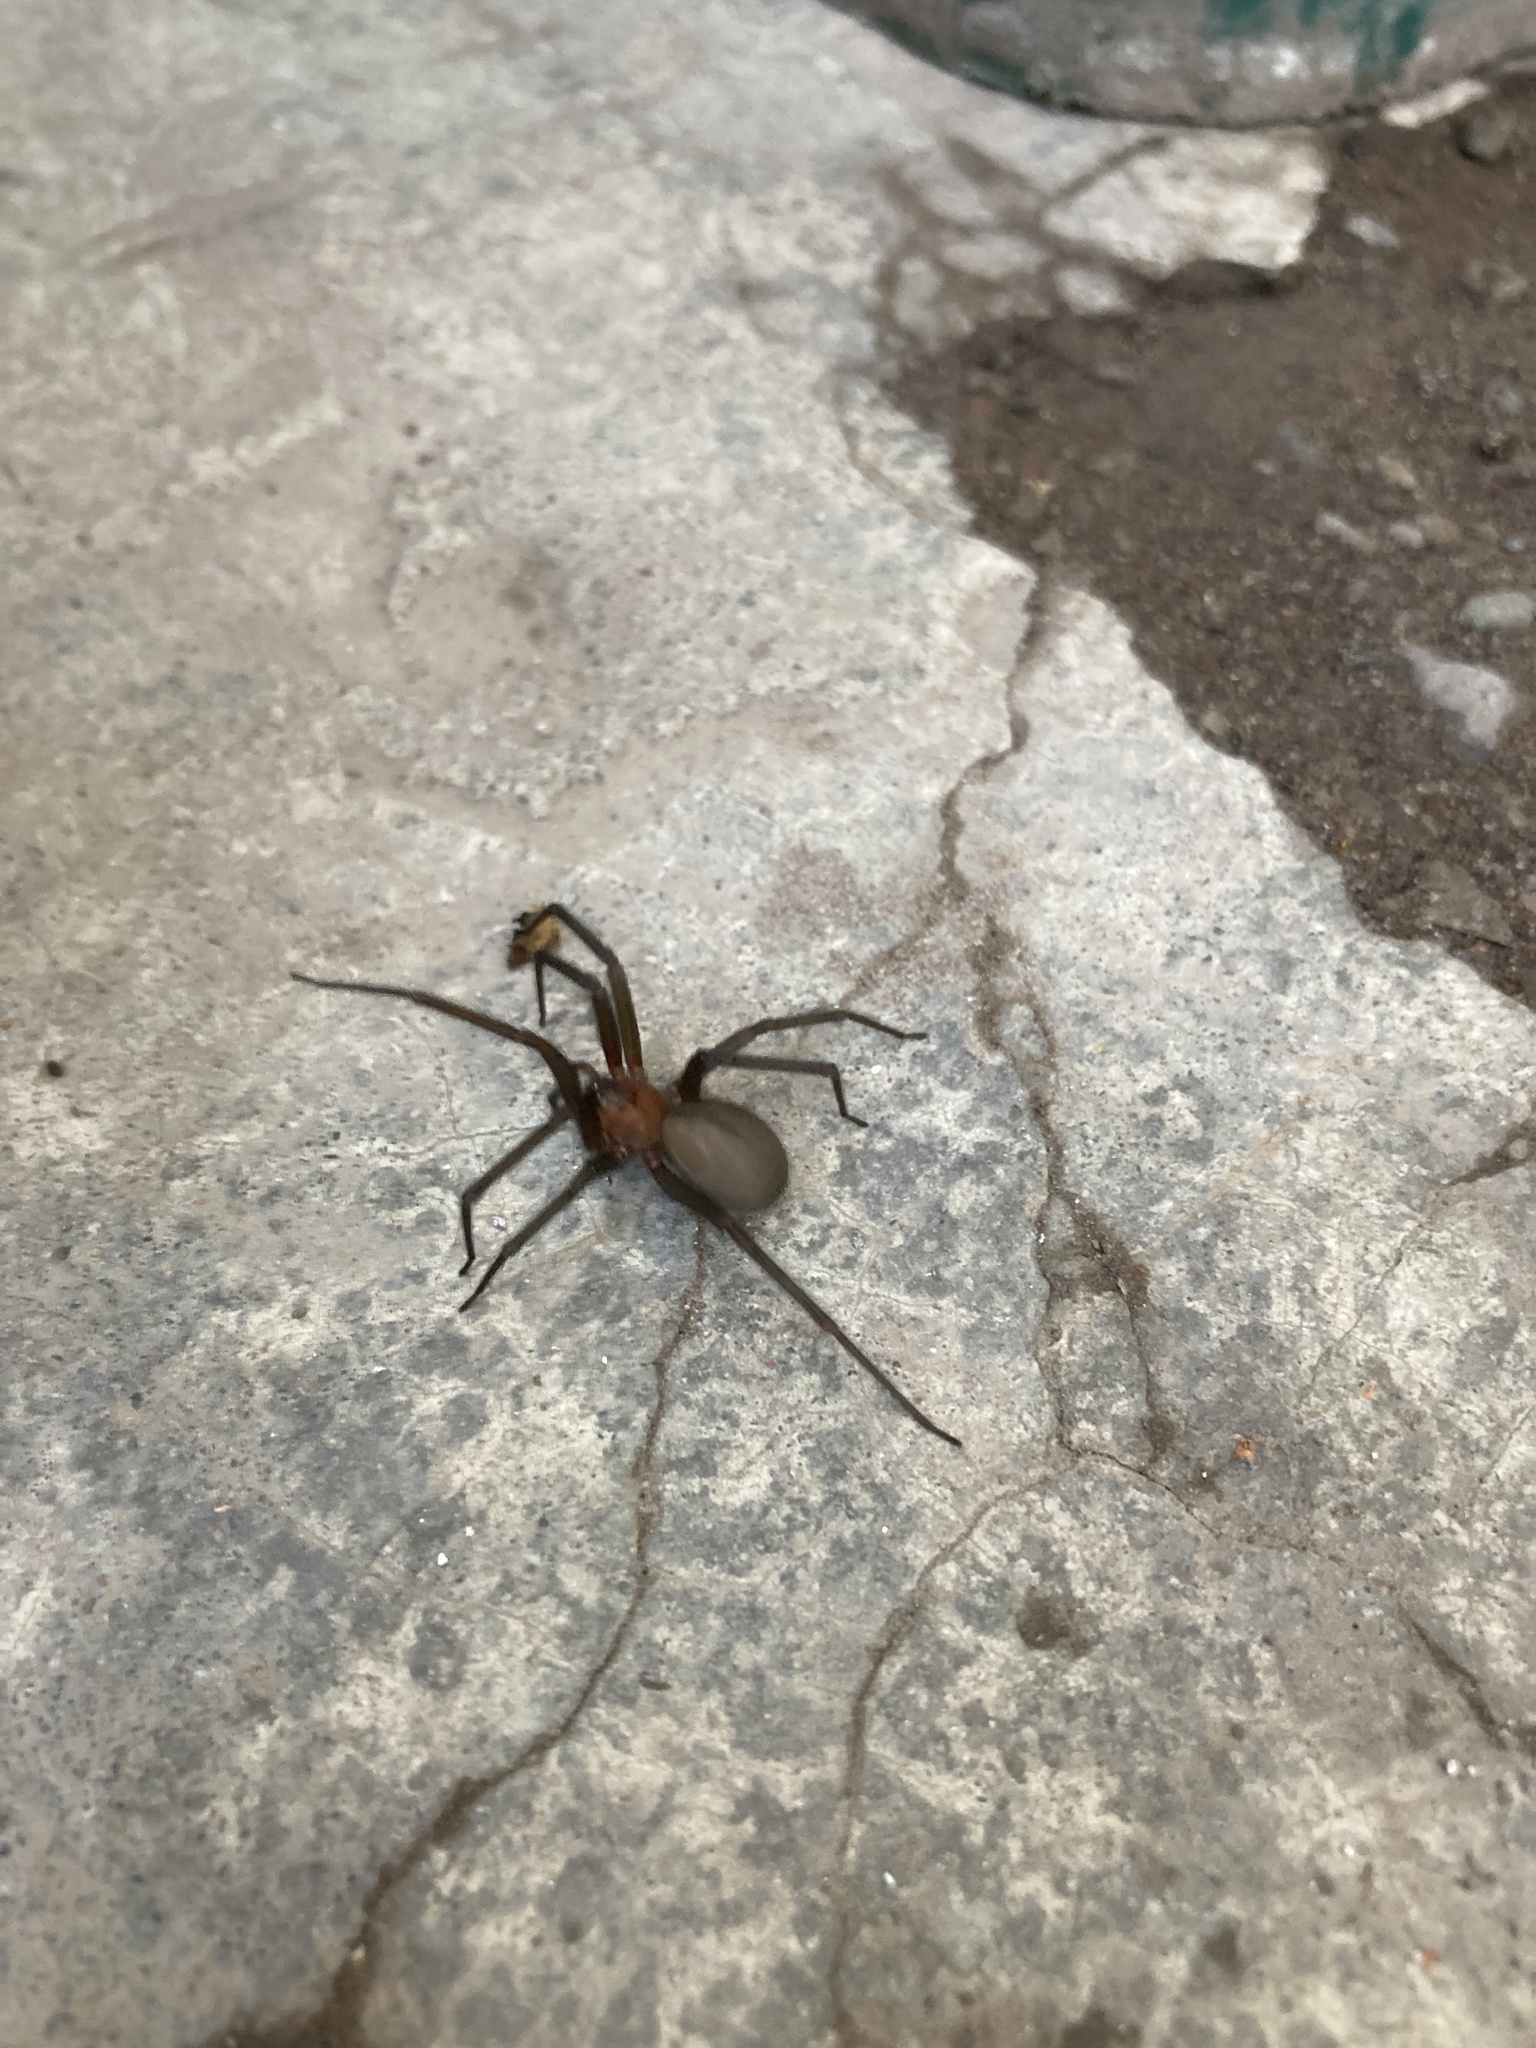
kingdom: Animalia
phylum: Arthropoda
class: Arachnida
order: Araneae
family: Sicariidae
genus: Loxosceles
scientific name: Loxosceles laeta
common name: Chilean recluse spider
